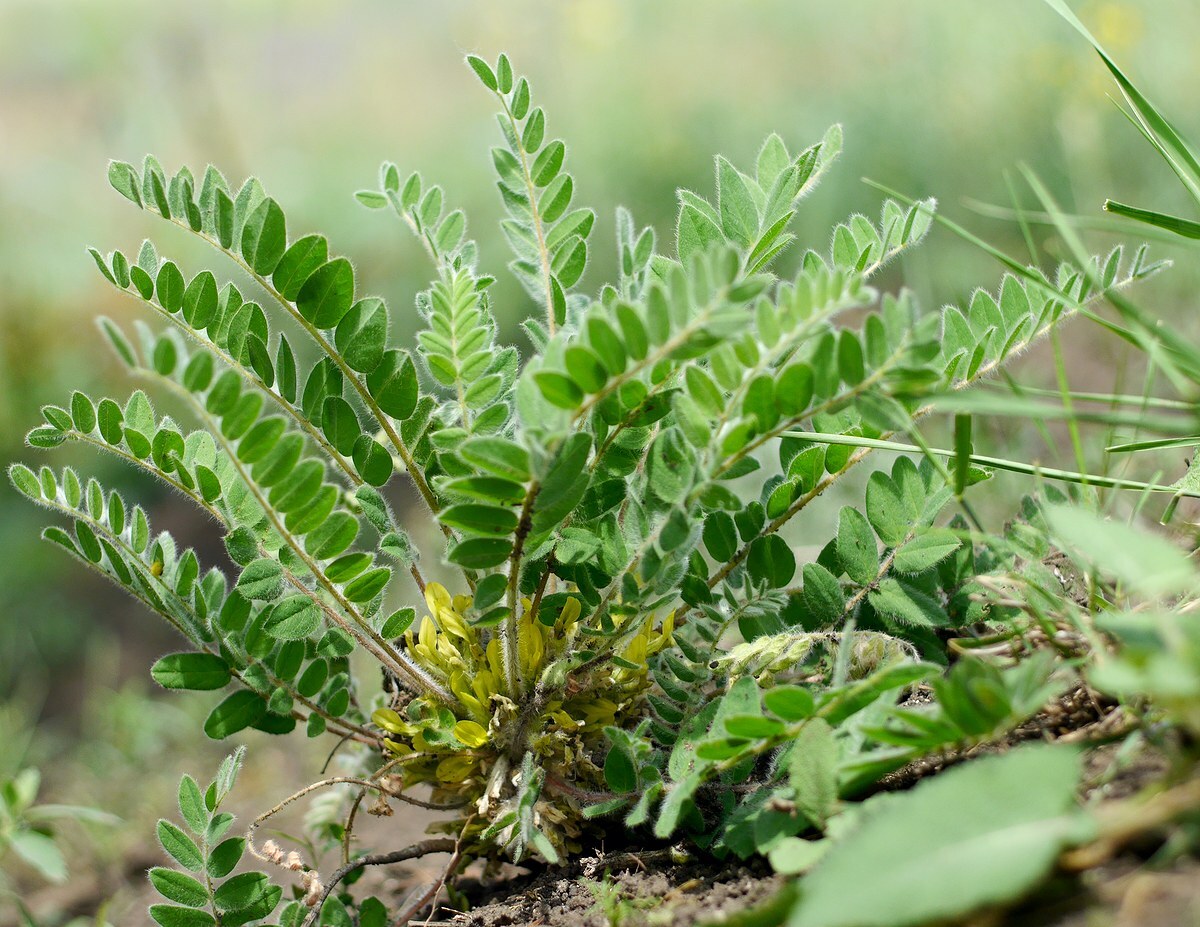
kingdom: Plantae
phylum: Tracheophyta
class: Magnoliopsida
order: Fabales
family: Fabaceae
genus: Astragalus
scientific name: Astragalus exscapus
